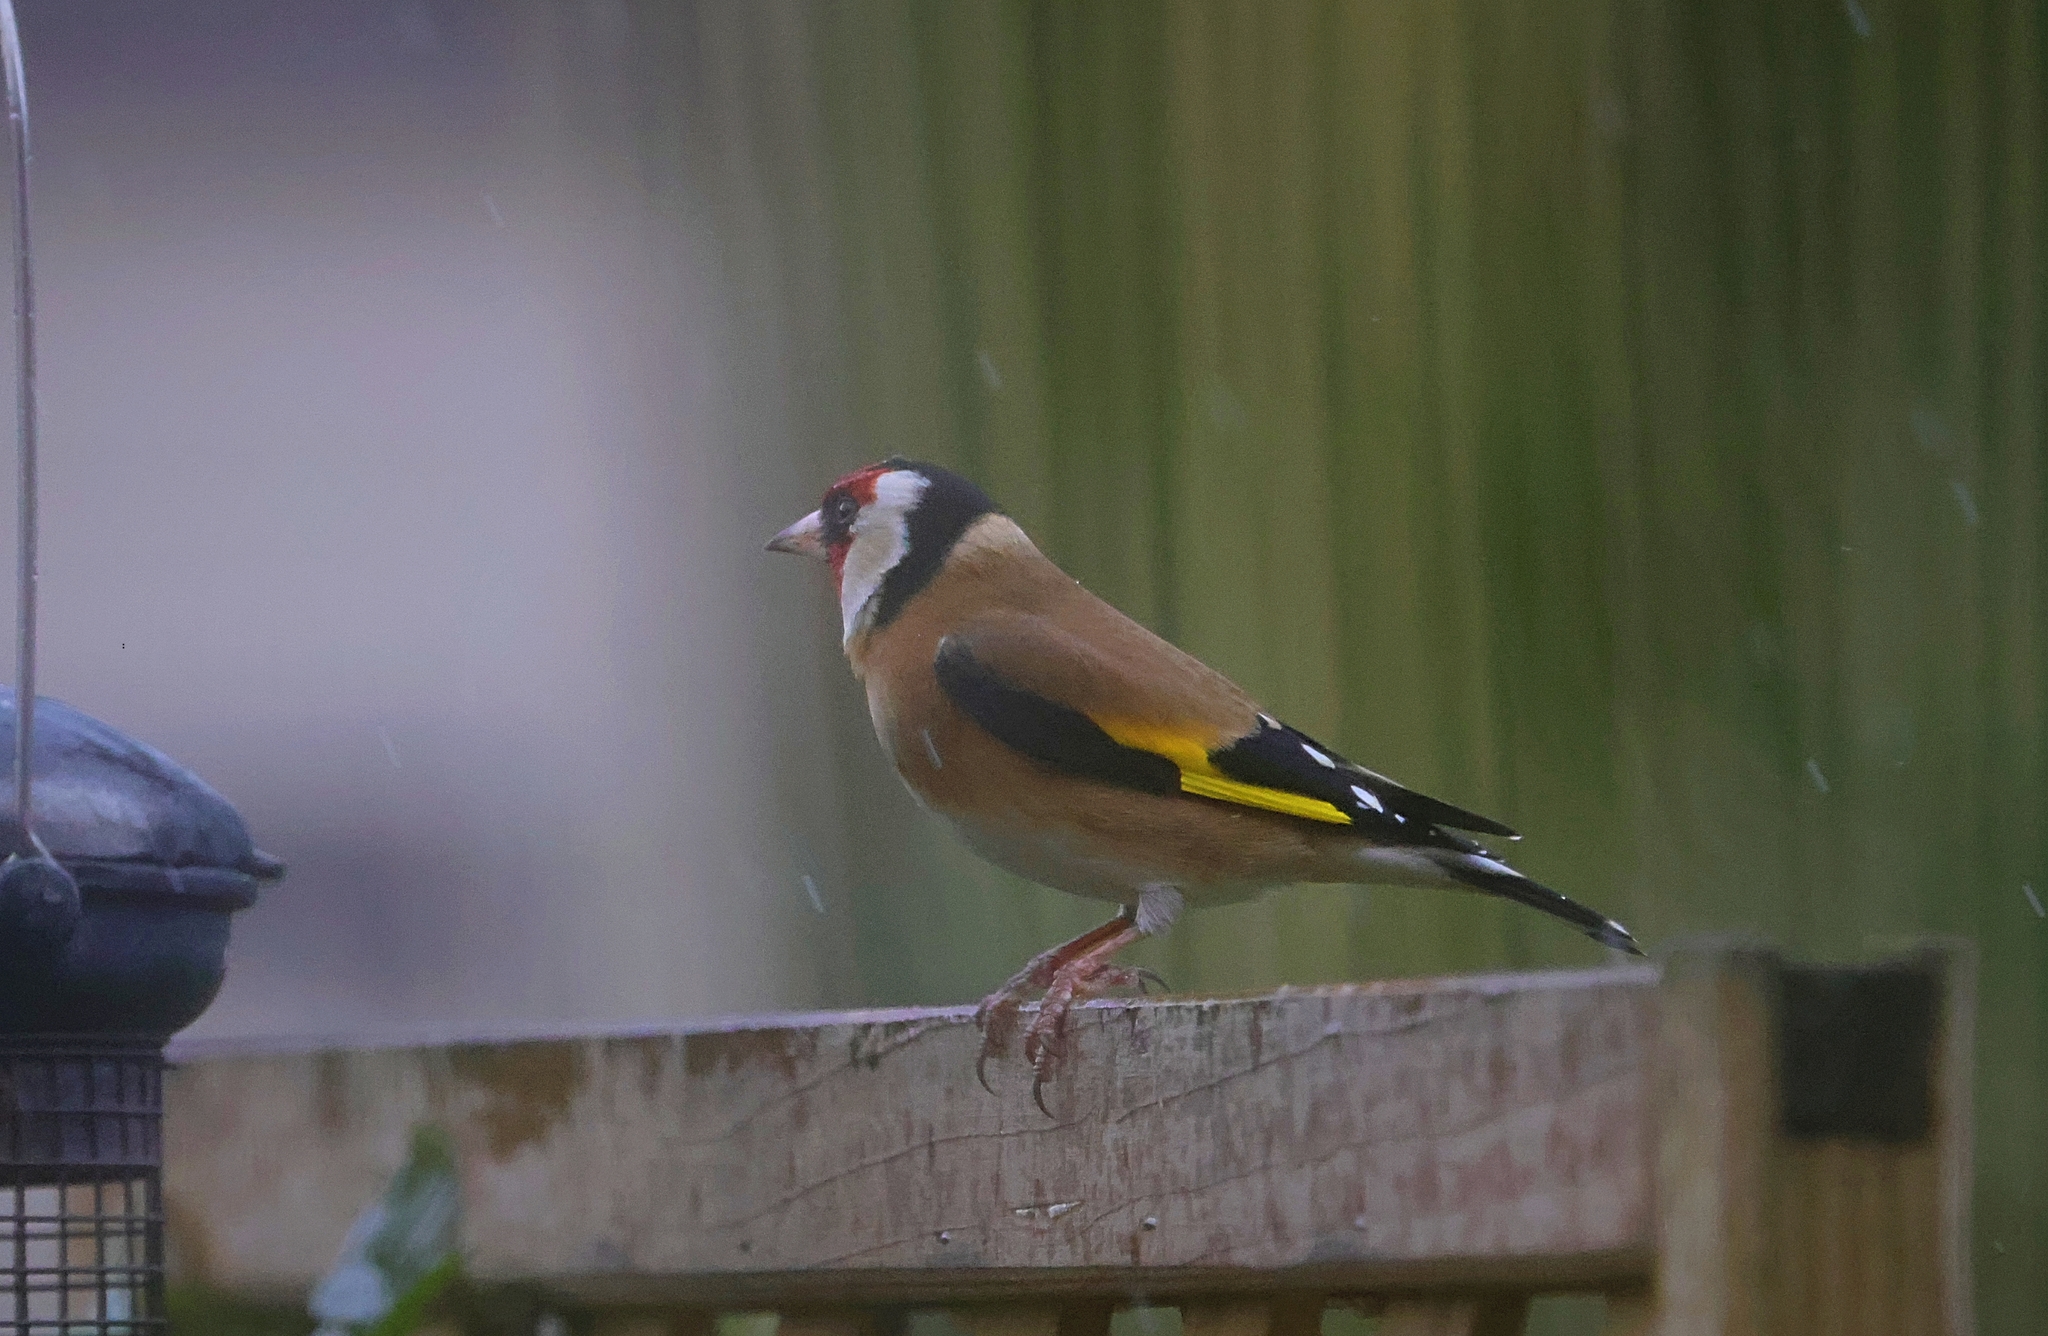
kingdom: Animalia
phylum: Chordata
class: Aves
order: Passeriformes
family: Fringillidae
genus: Carduelis
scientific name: Carduelis carduelis
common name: European goldfinch
